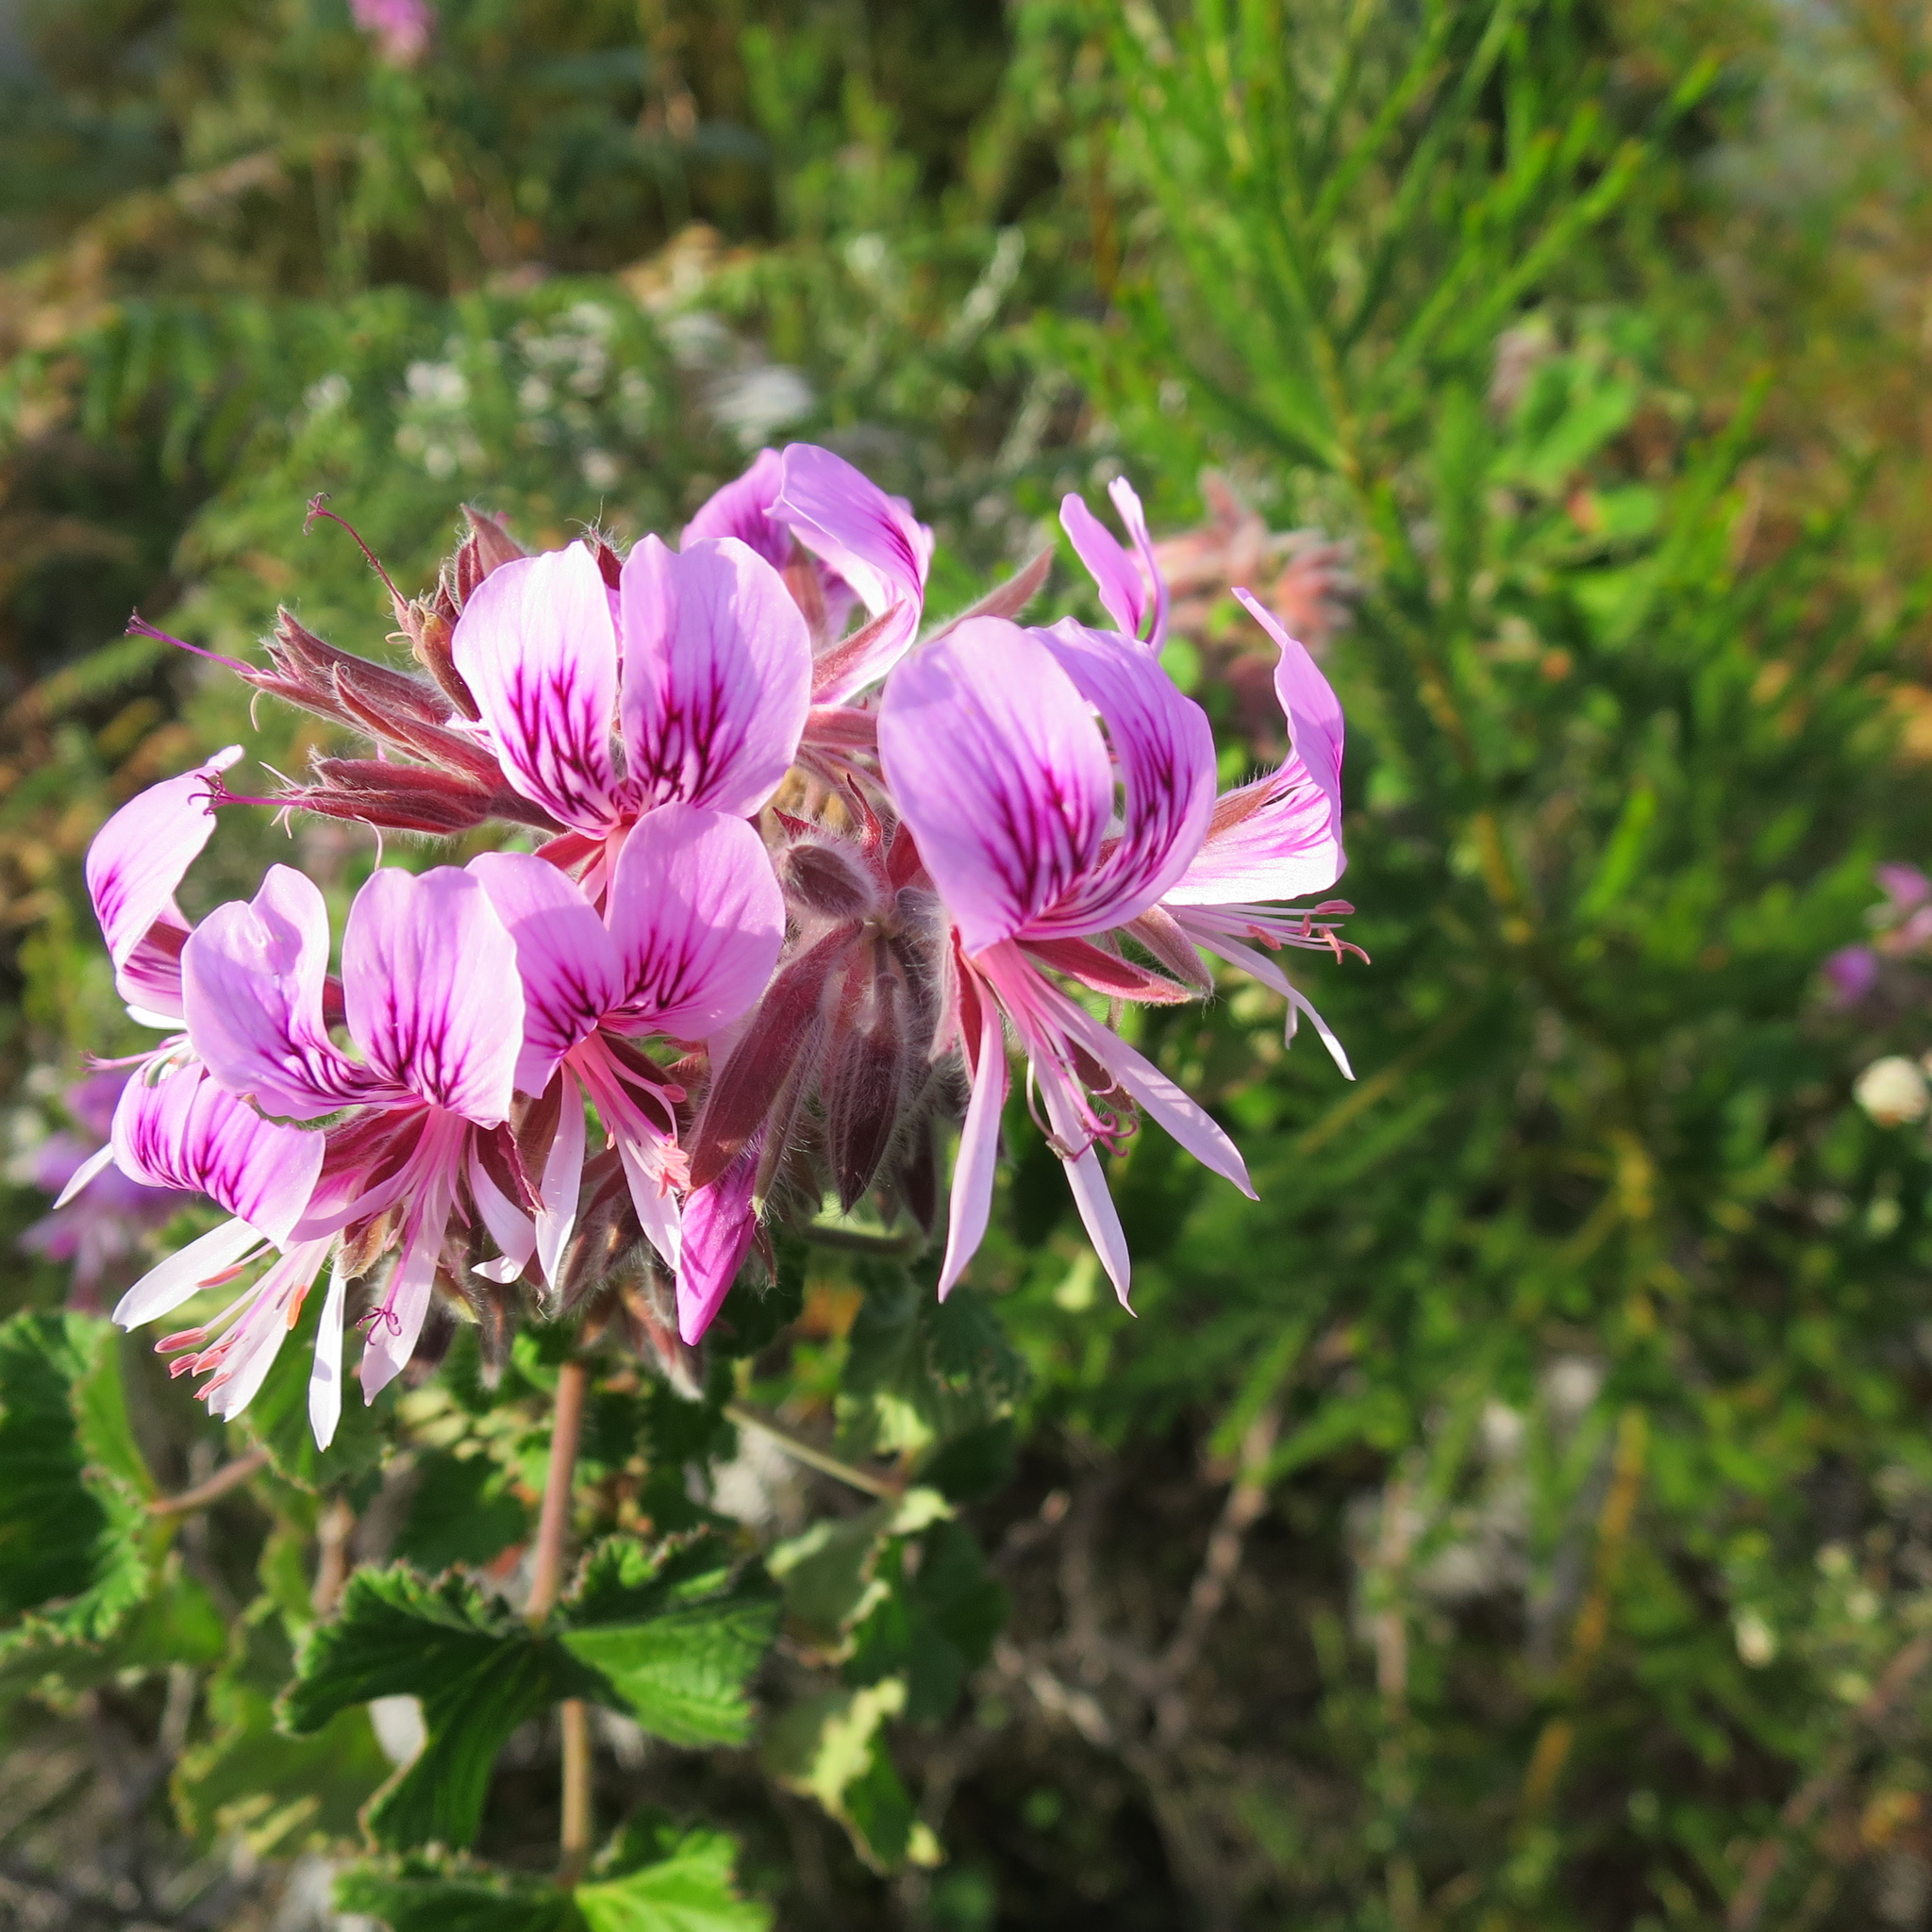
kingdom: Plantae
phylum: Tracheophyta
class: Magnoliopsida
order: Geraniales
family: Geraniaceae
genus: Pelargonium
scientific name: Pelargonium cordifolium
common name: Heart-leaf pelargonium
